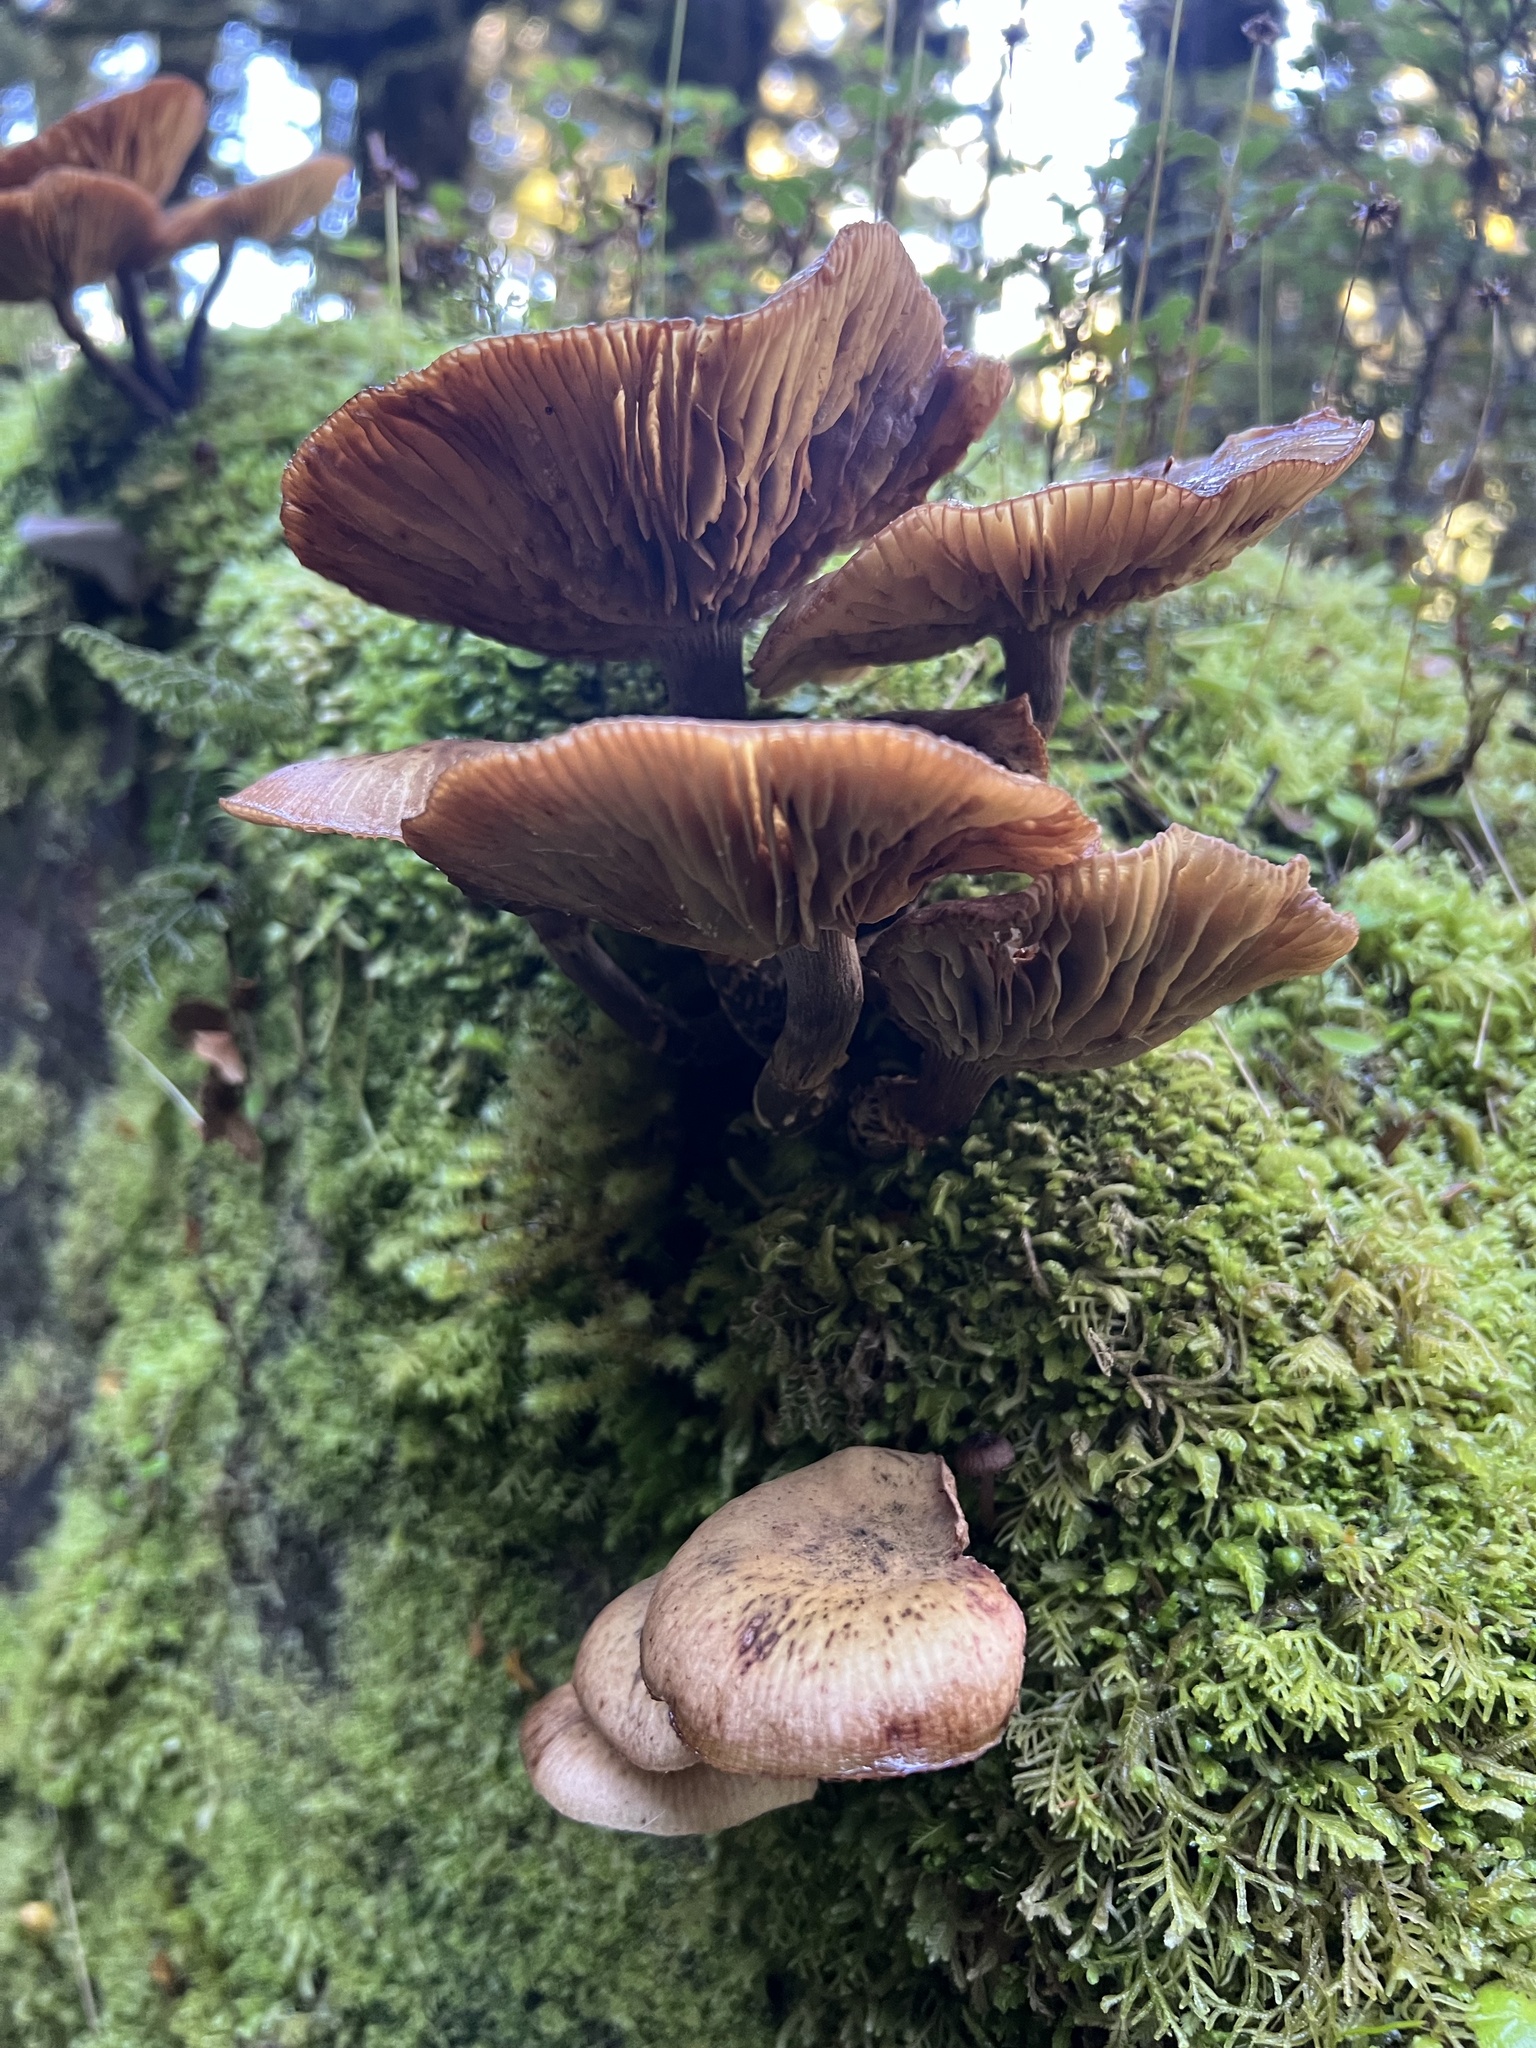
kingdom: Fungi
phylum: Basidiomycota
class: Agaricomycetes
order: Agaricales
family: Physalacriaceae
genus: Armillaria
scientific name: Armillaria novae-zelandiae
